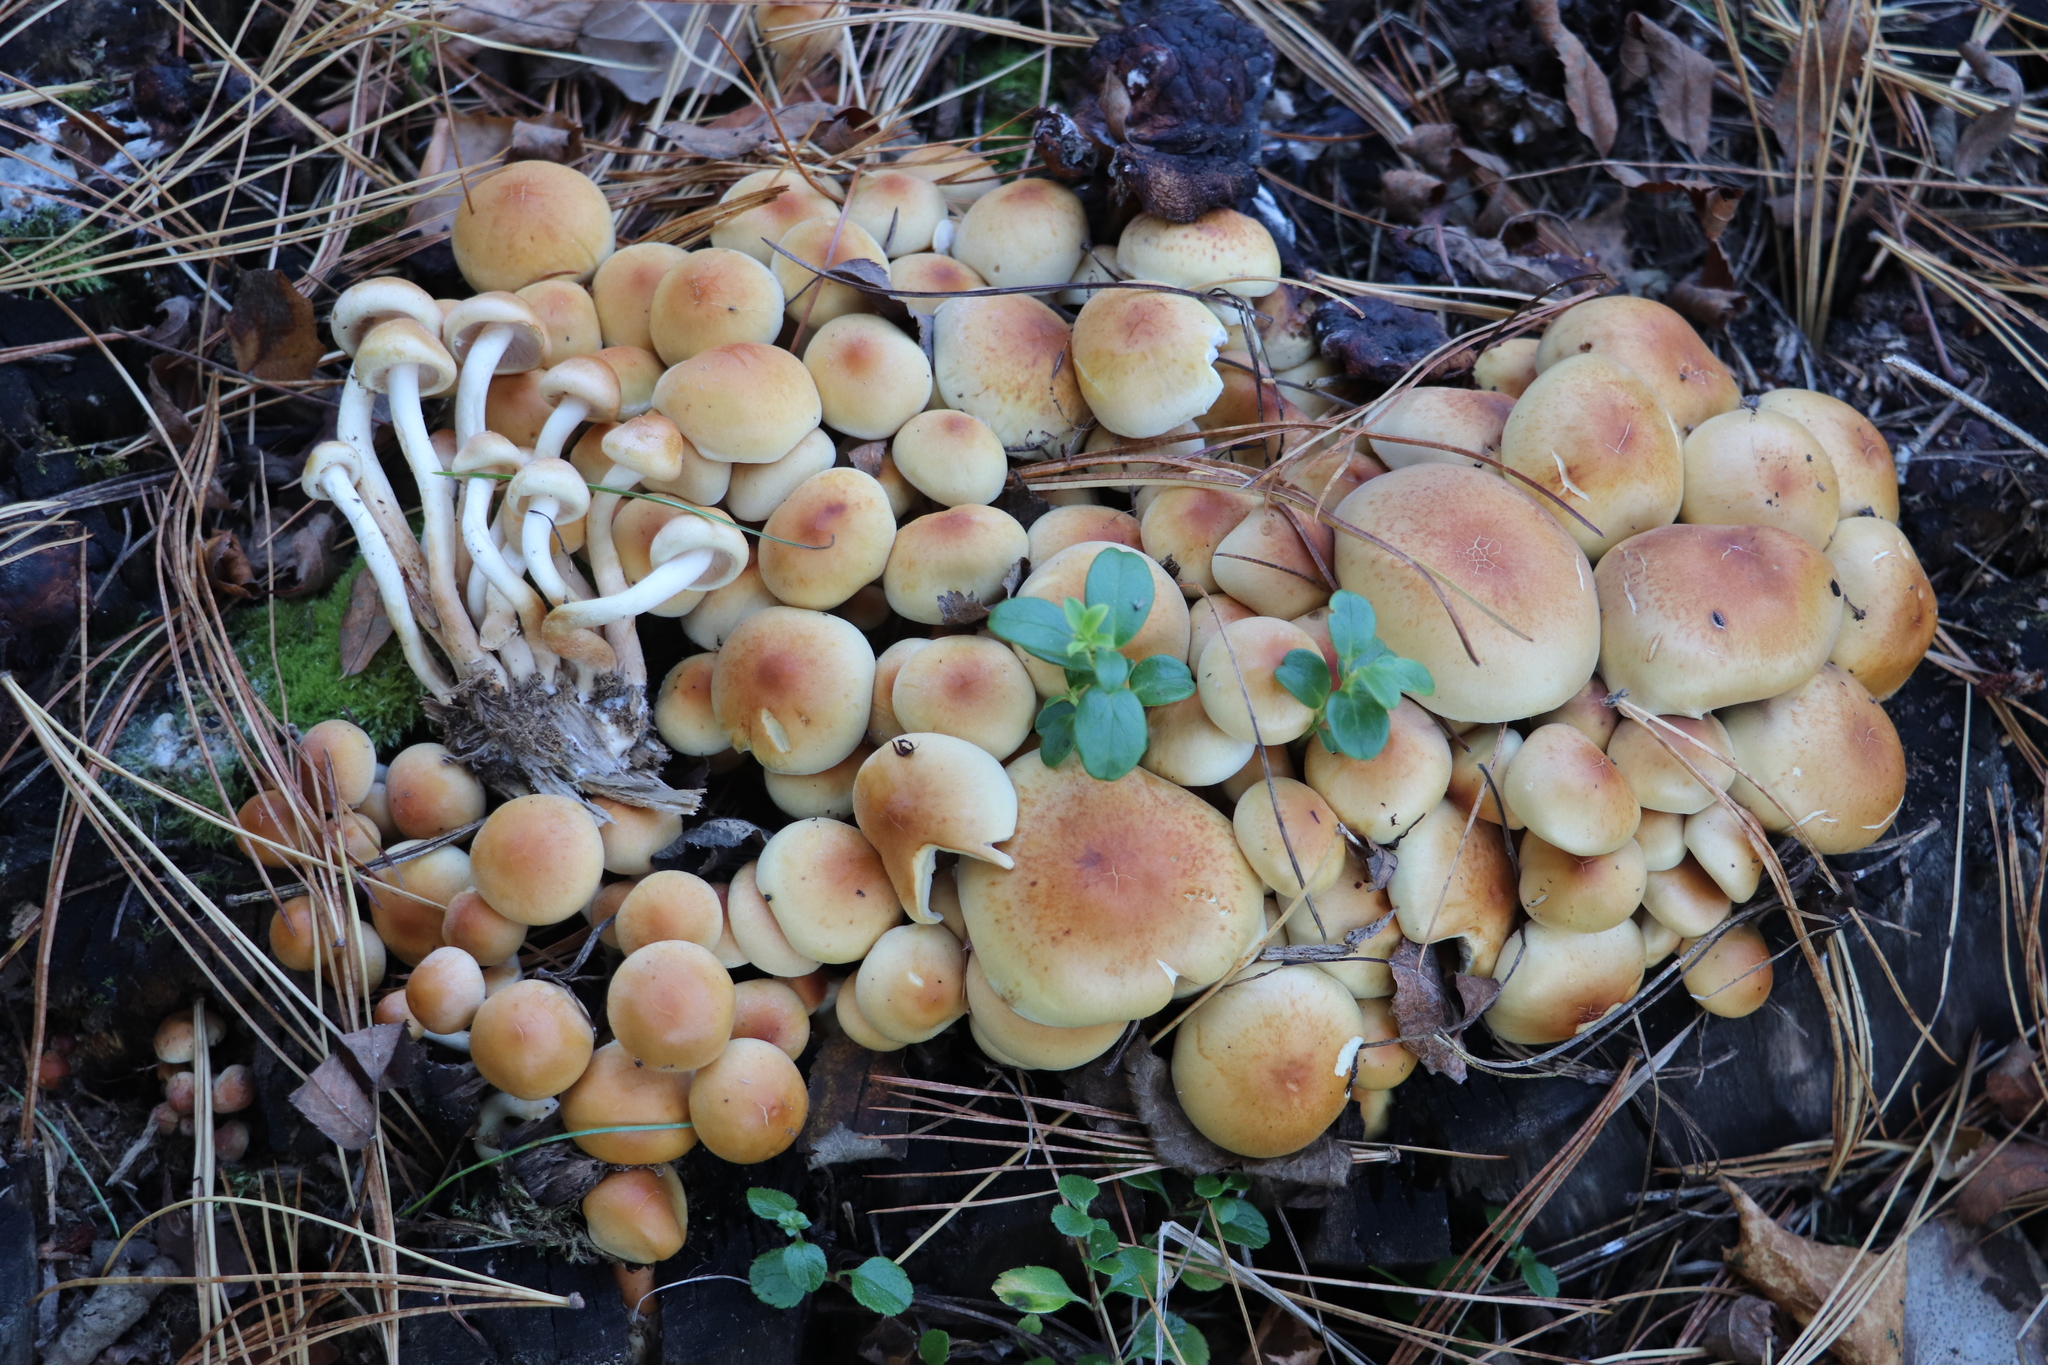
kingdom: Fungi
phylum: Basidiomycota
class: Agaricomycetes
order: Agaricales
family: Strophariaceae
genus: Hypholoma
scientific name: Hypholoma capnoides
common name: Conifer tuft
